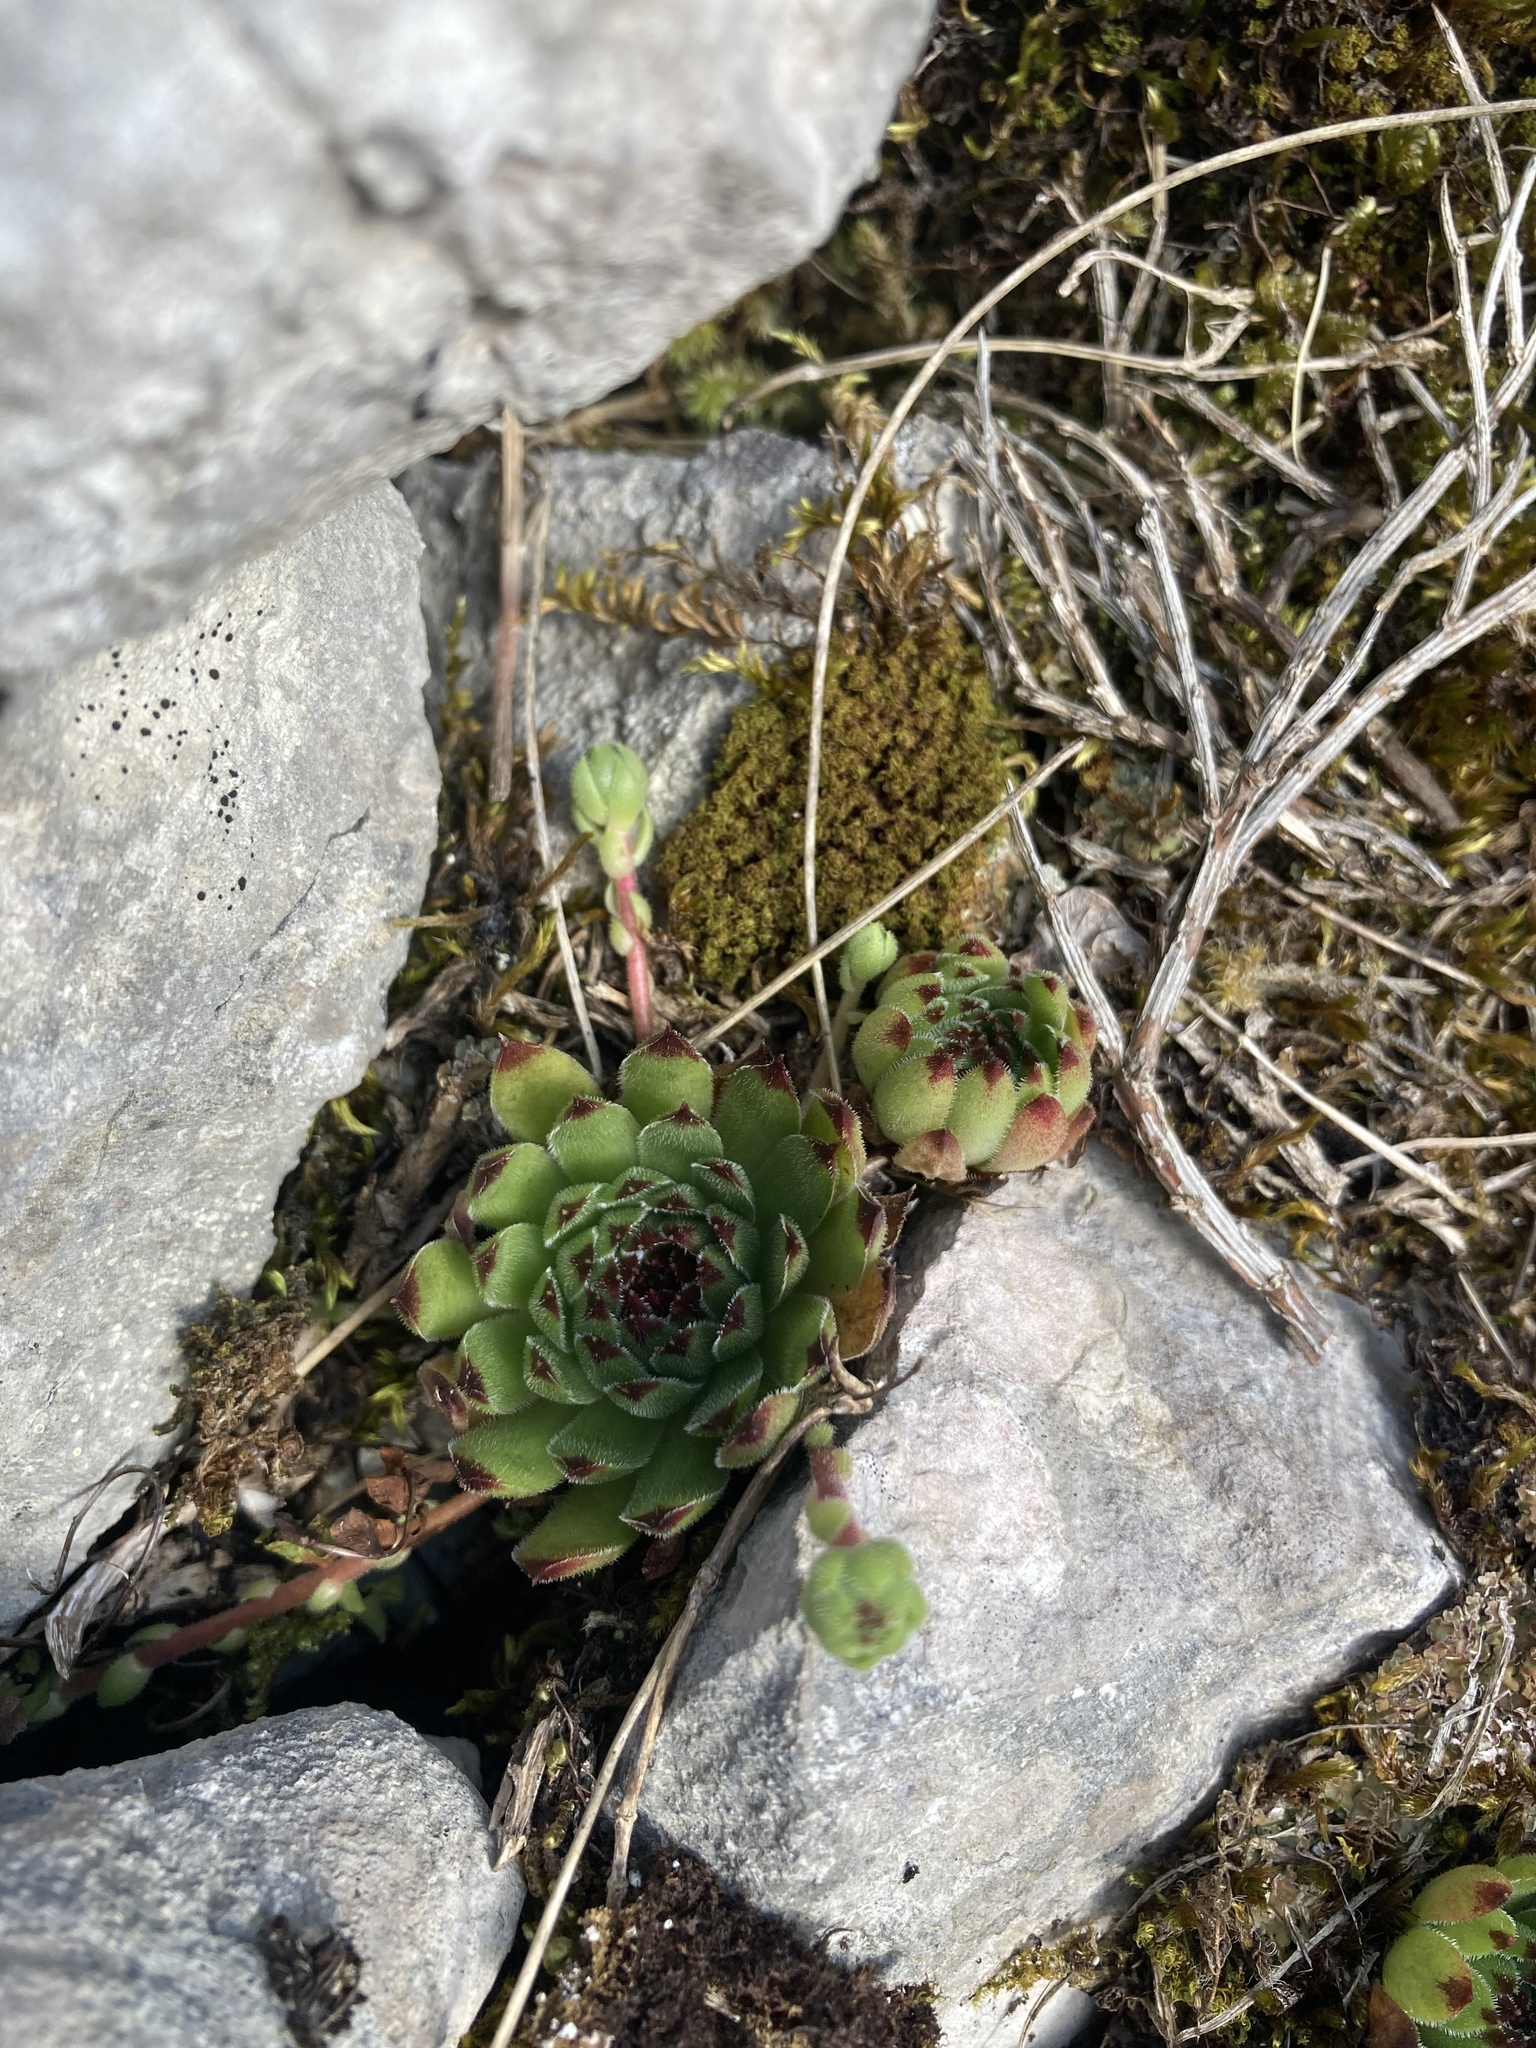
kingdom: Plantae
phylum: Tracheophyta
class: Magnoliopsida
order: Saxifragales
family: Crassulaceae
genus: Sempervivum
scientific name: Sempervivum vicentei
